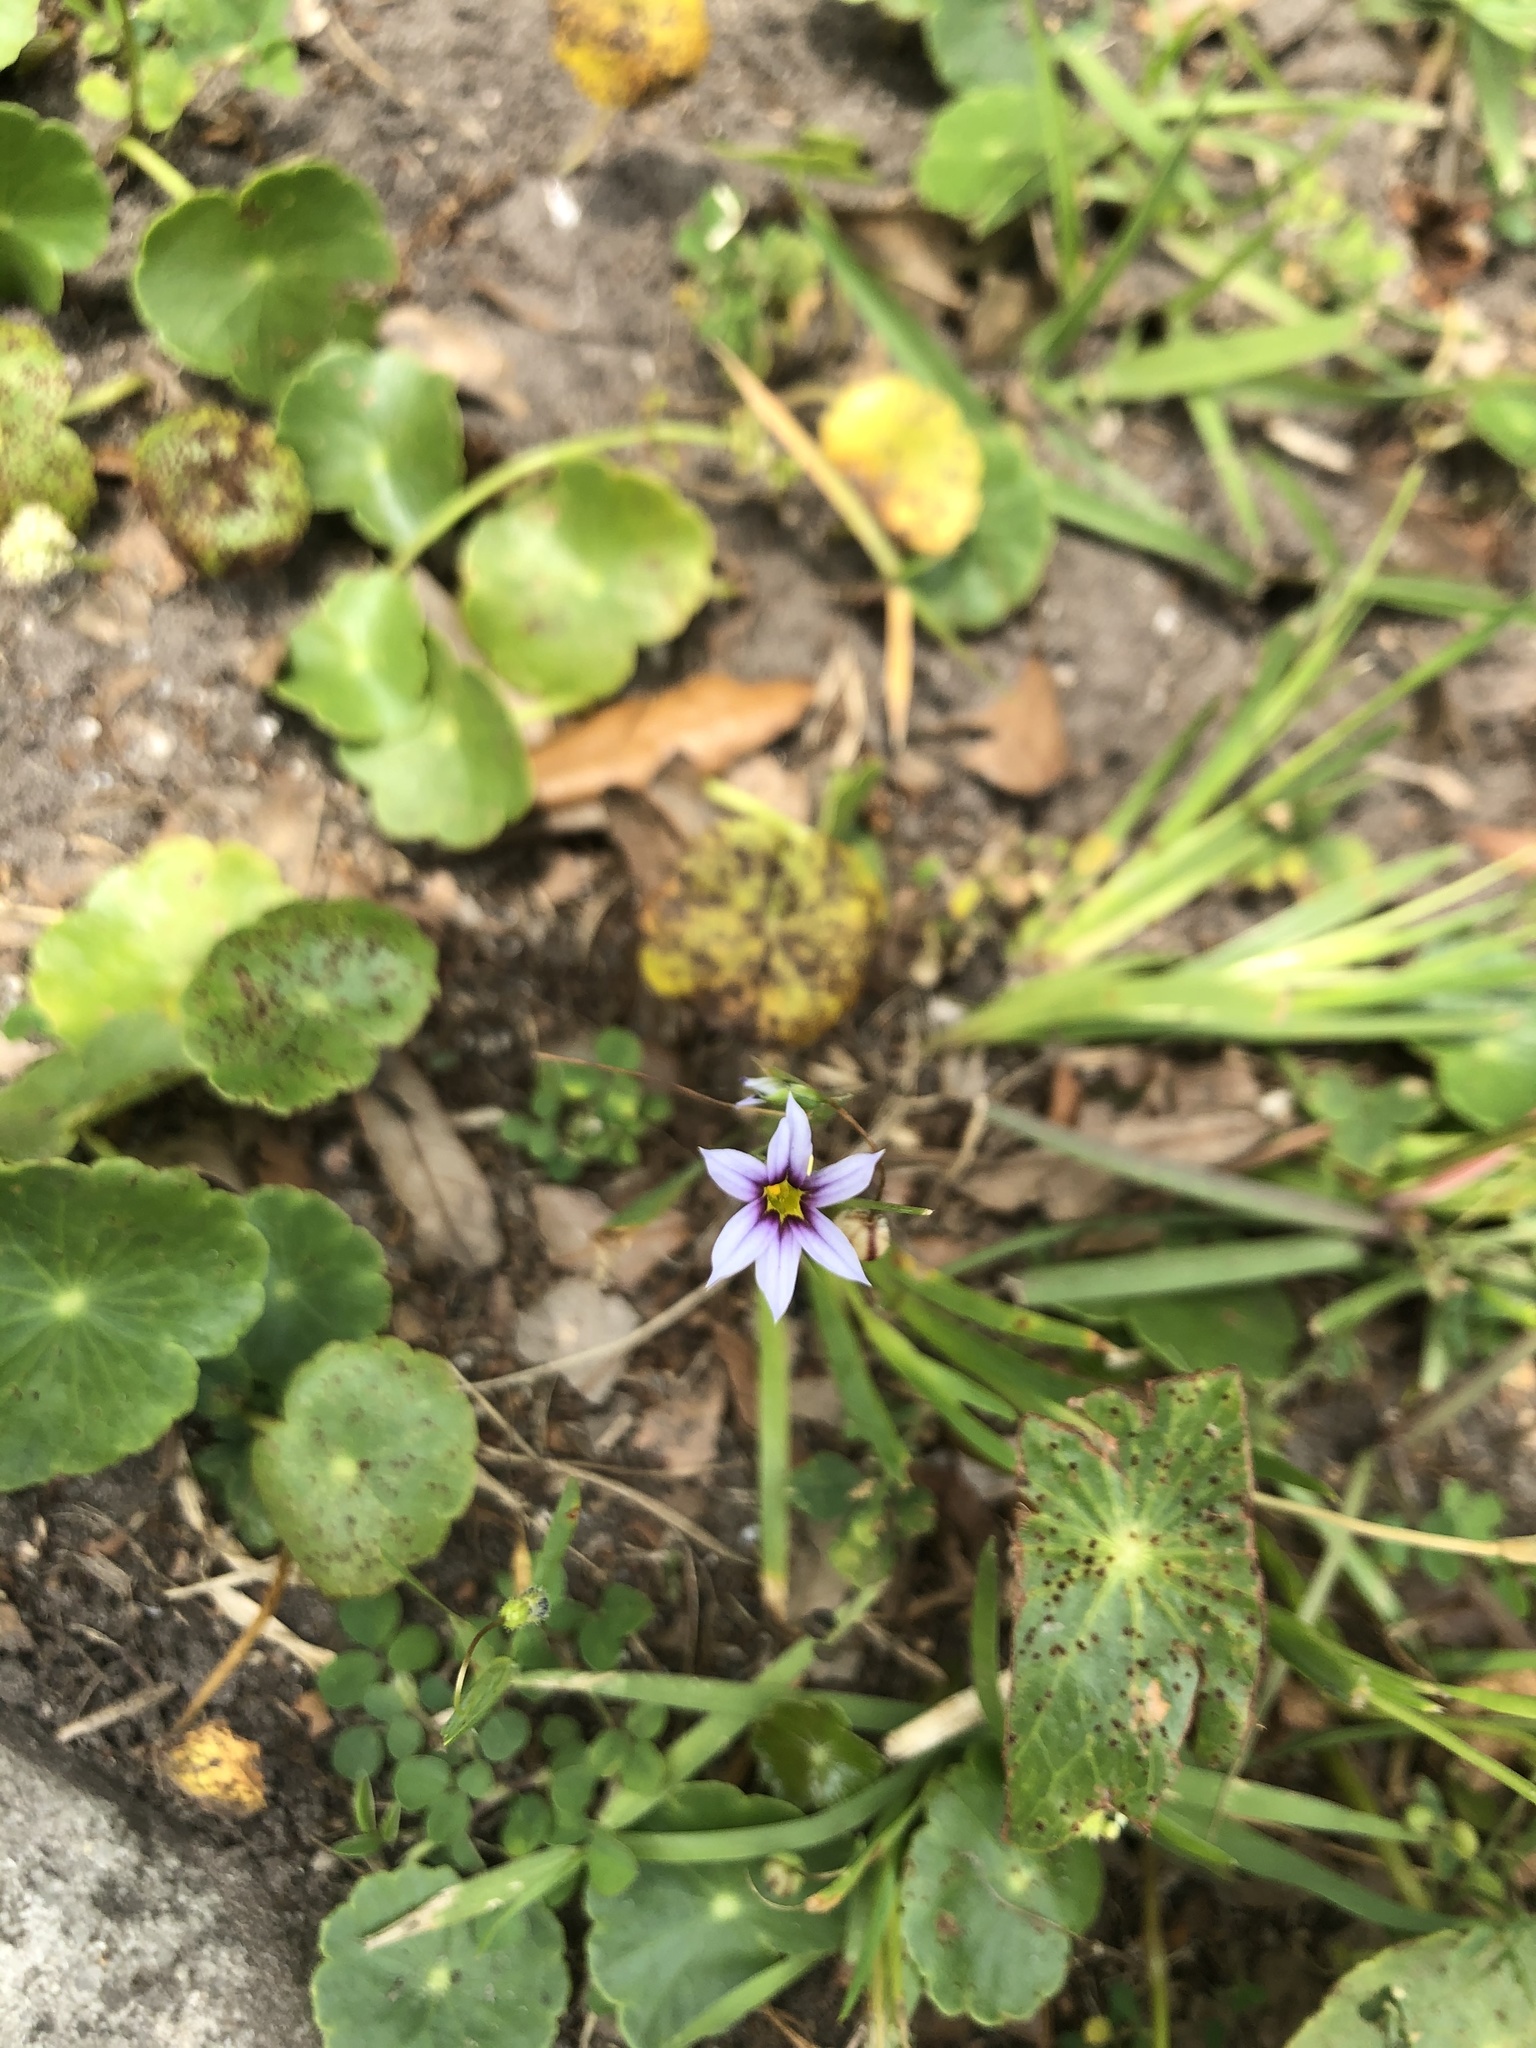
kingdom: Plantae
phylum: Tracheophyta
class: Liliopsida
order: Asparagales
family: Iridaceae
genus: Sisyrinchium
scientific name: Sisyrinchium micranthum
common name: Bermuda pigroot
